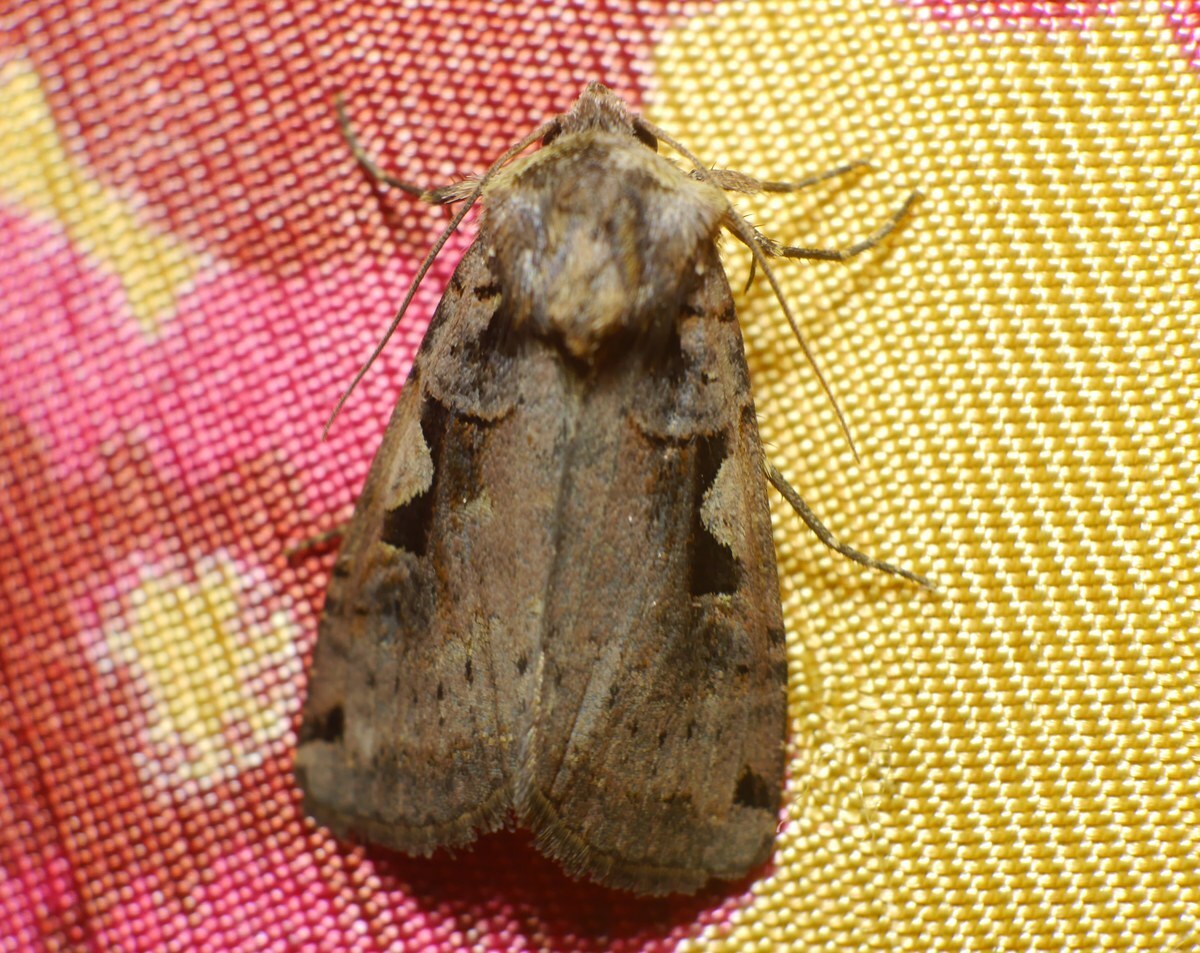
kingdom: Animalia
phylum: Arthropoda
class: Insecta
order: Lepidoptera
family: Noctuidae
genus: Xestia
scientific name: Xestia c-nigrum
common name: Setaceous hebrew character
